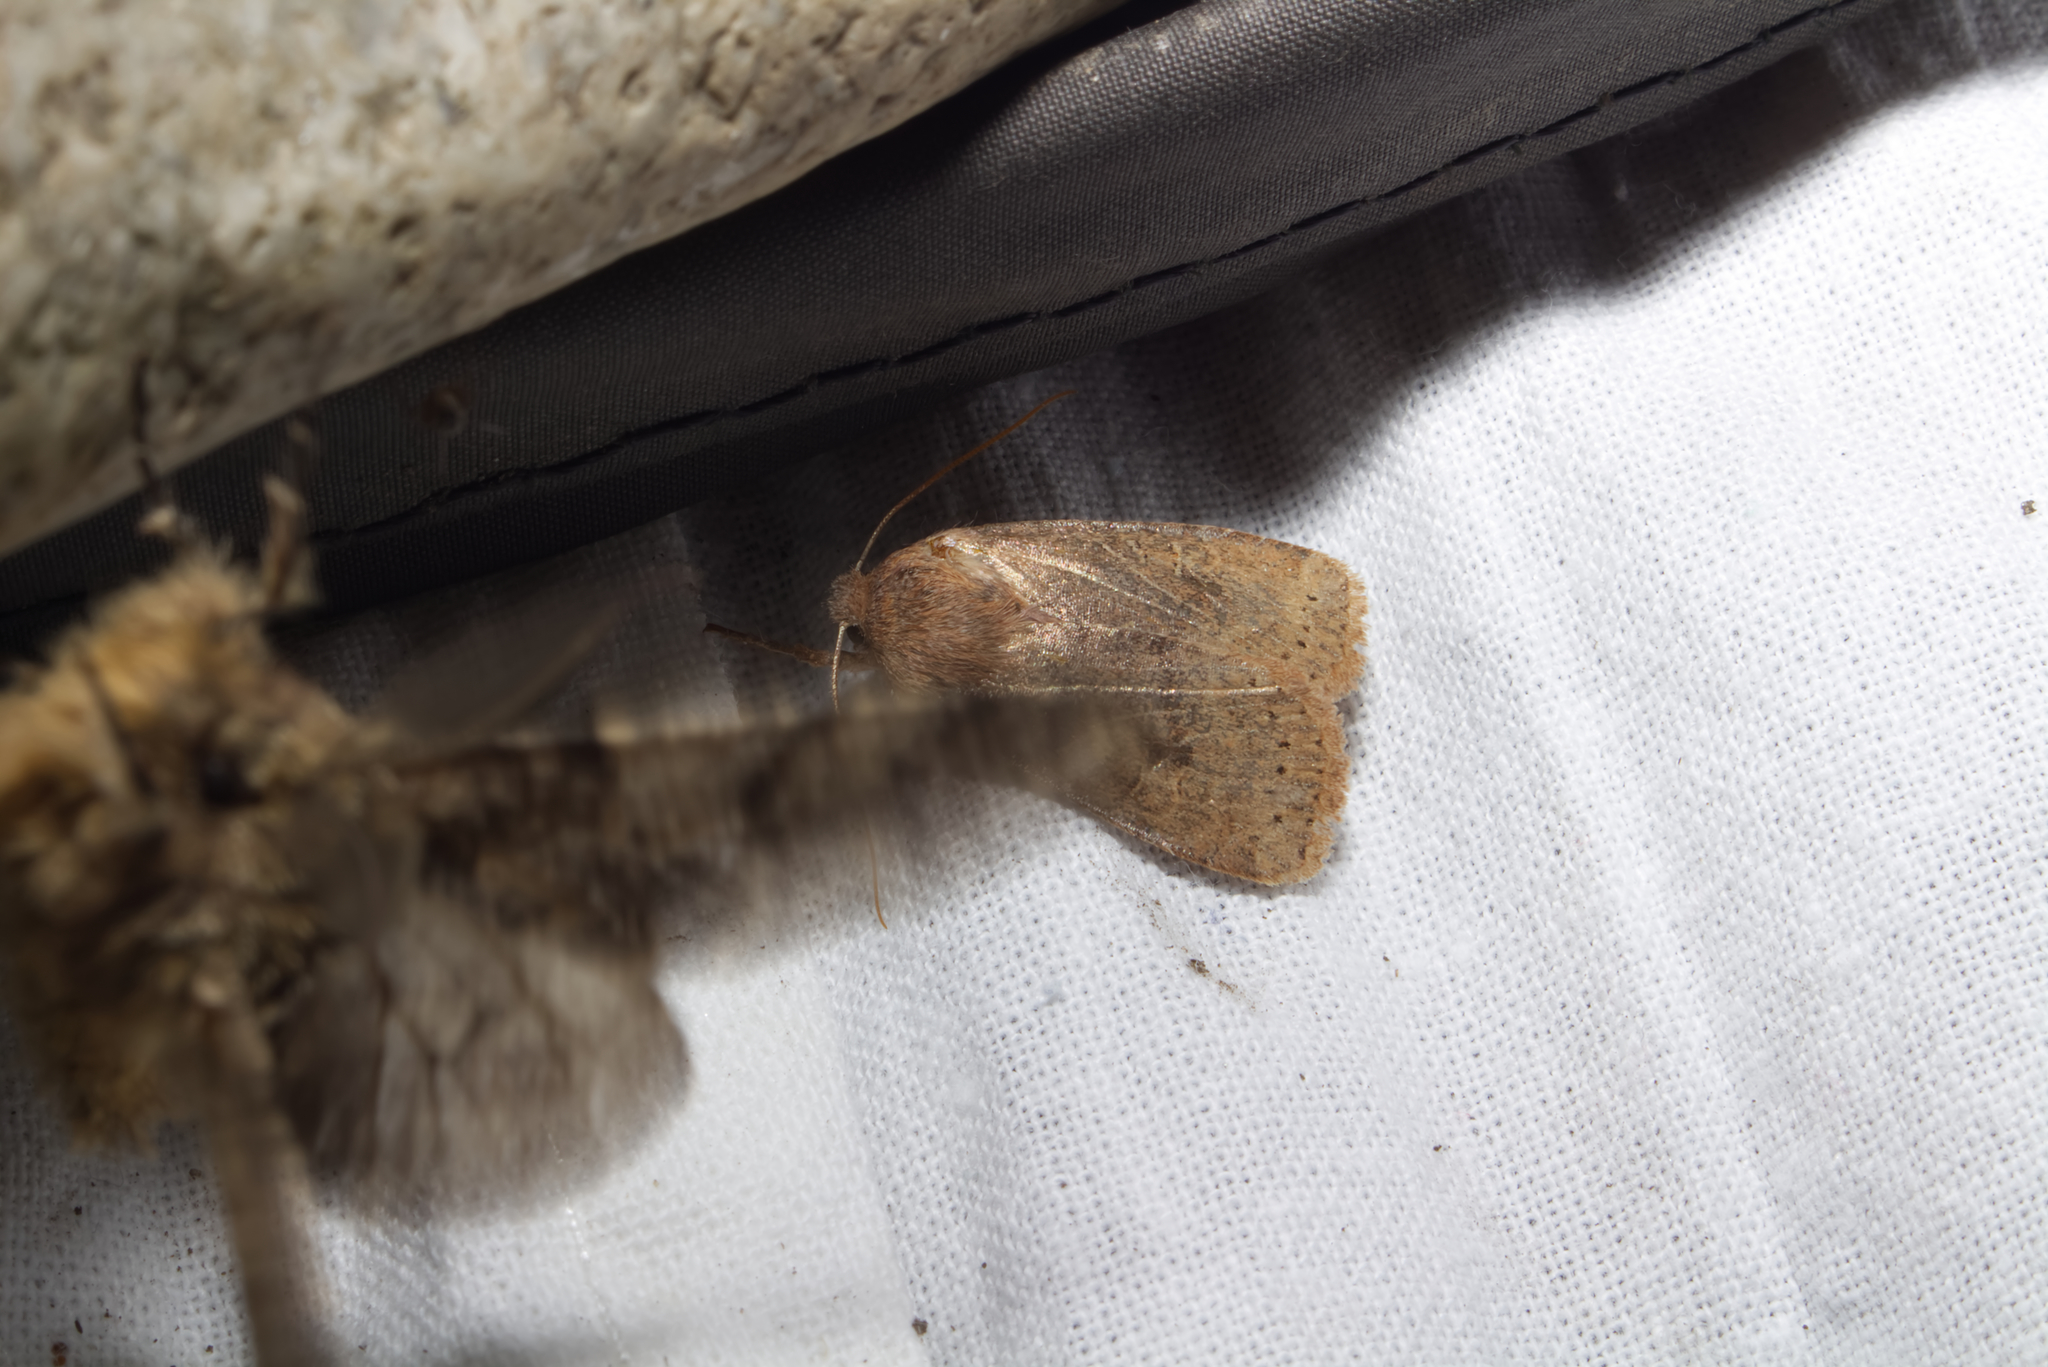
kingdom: Animalia
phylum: Arthropoda
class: Insecta
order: Lepidoptera
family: Noctuidae
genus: Conistra
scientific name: Conistra vaccinii
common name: Chestnut
